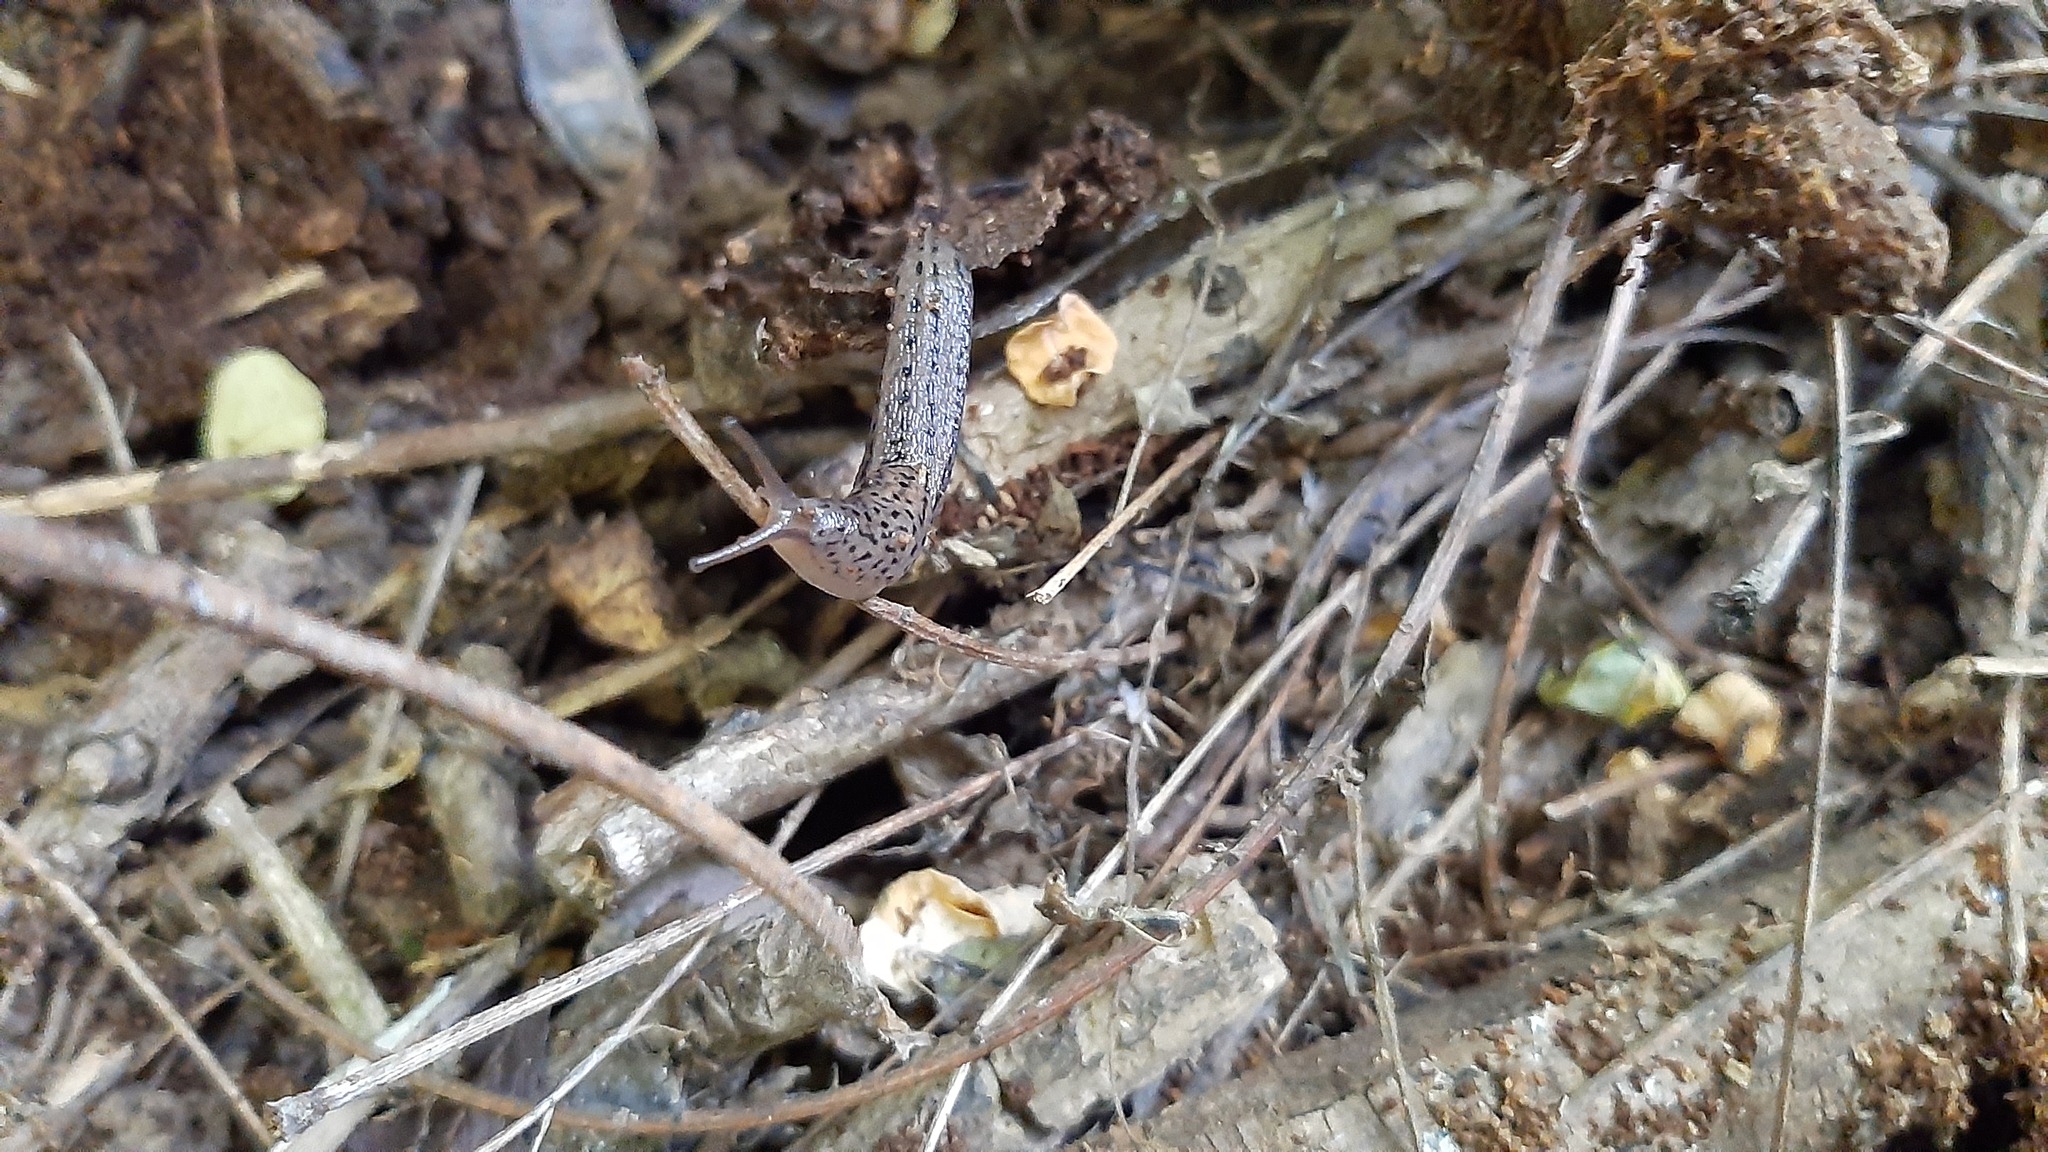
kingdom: Animalia
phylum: Mollusca
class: Gastropoda
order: Stylommatophora
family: Limacidae
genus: Limax
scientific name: Limax maximus
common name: Great grey slug
